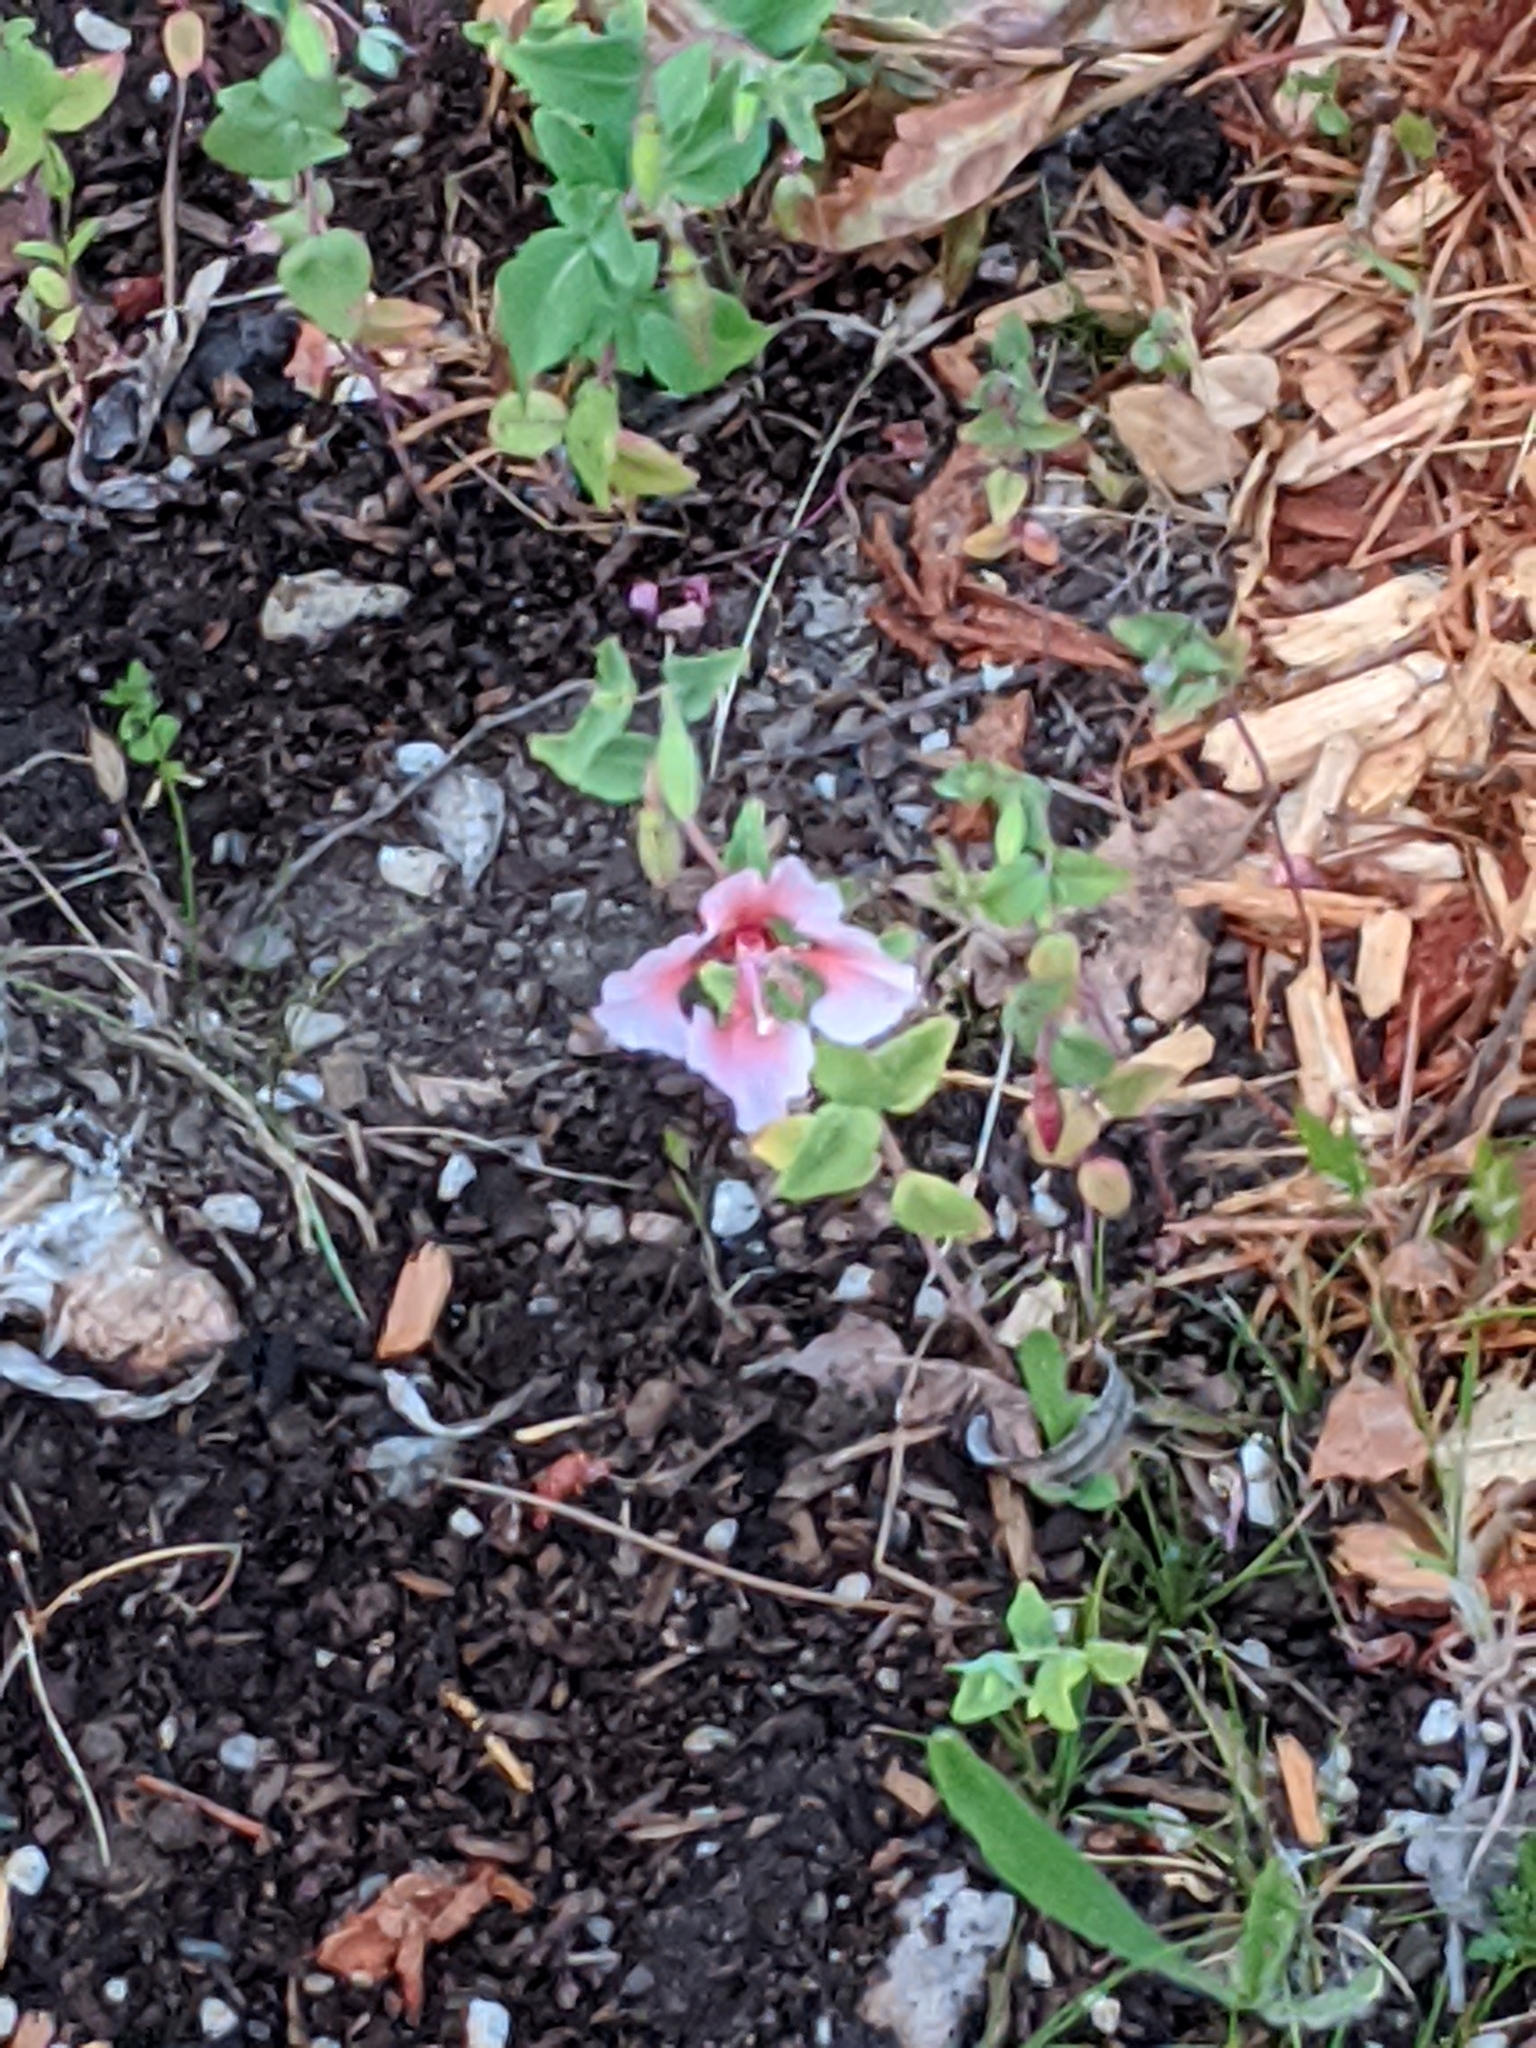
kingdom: Plantae
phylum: Tracheophyta
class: Magnoliopsida
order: Myrtales
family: Onagraceae
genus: Clarkia
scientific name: Clarkia unguiculata
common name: Clarkia
